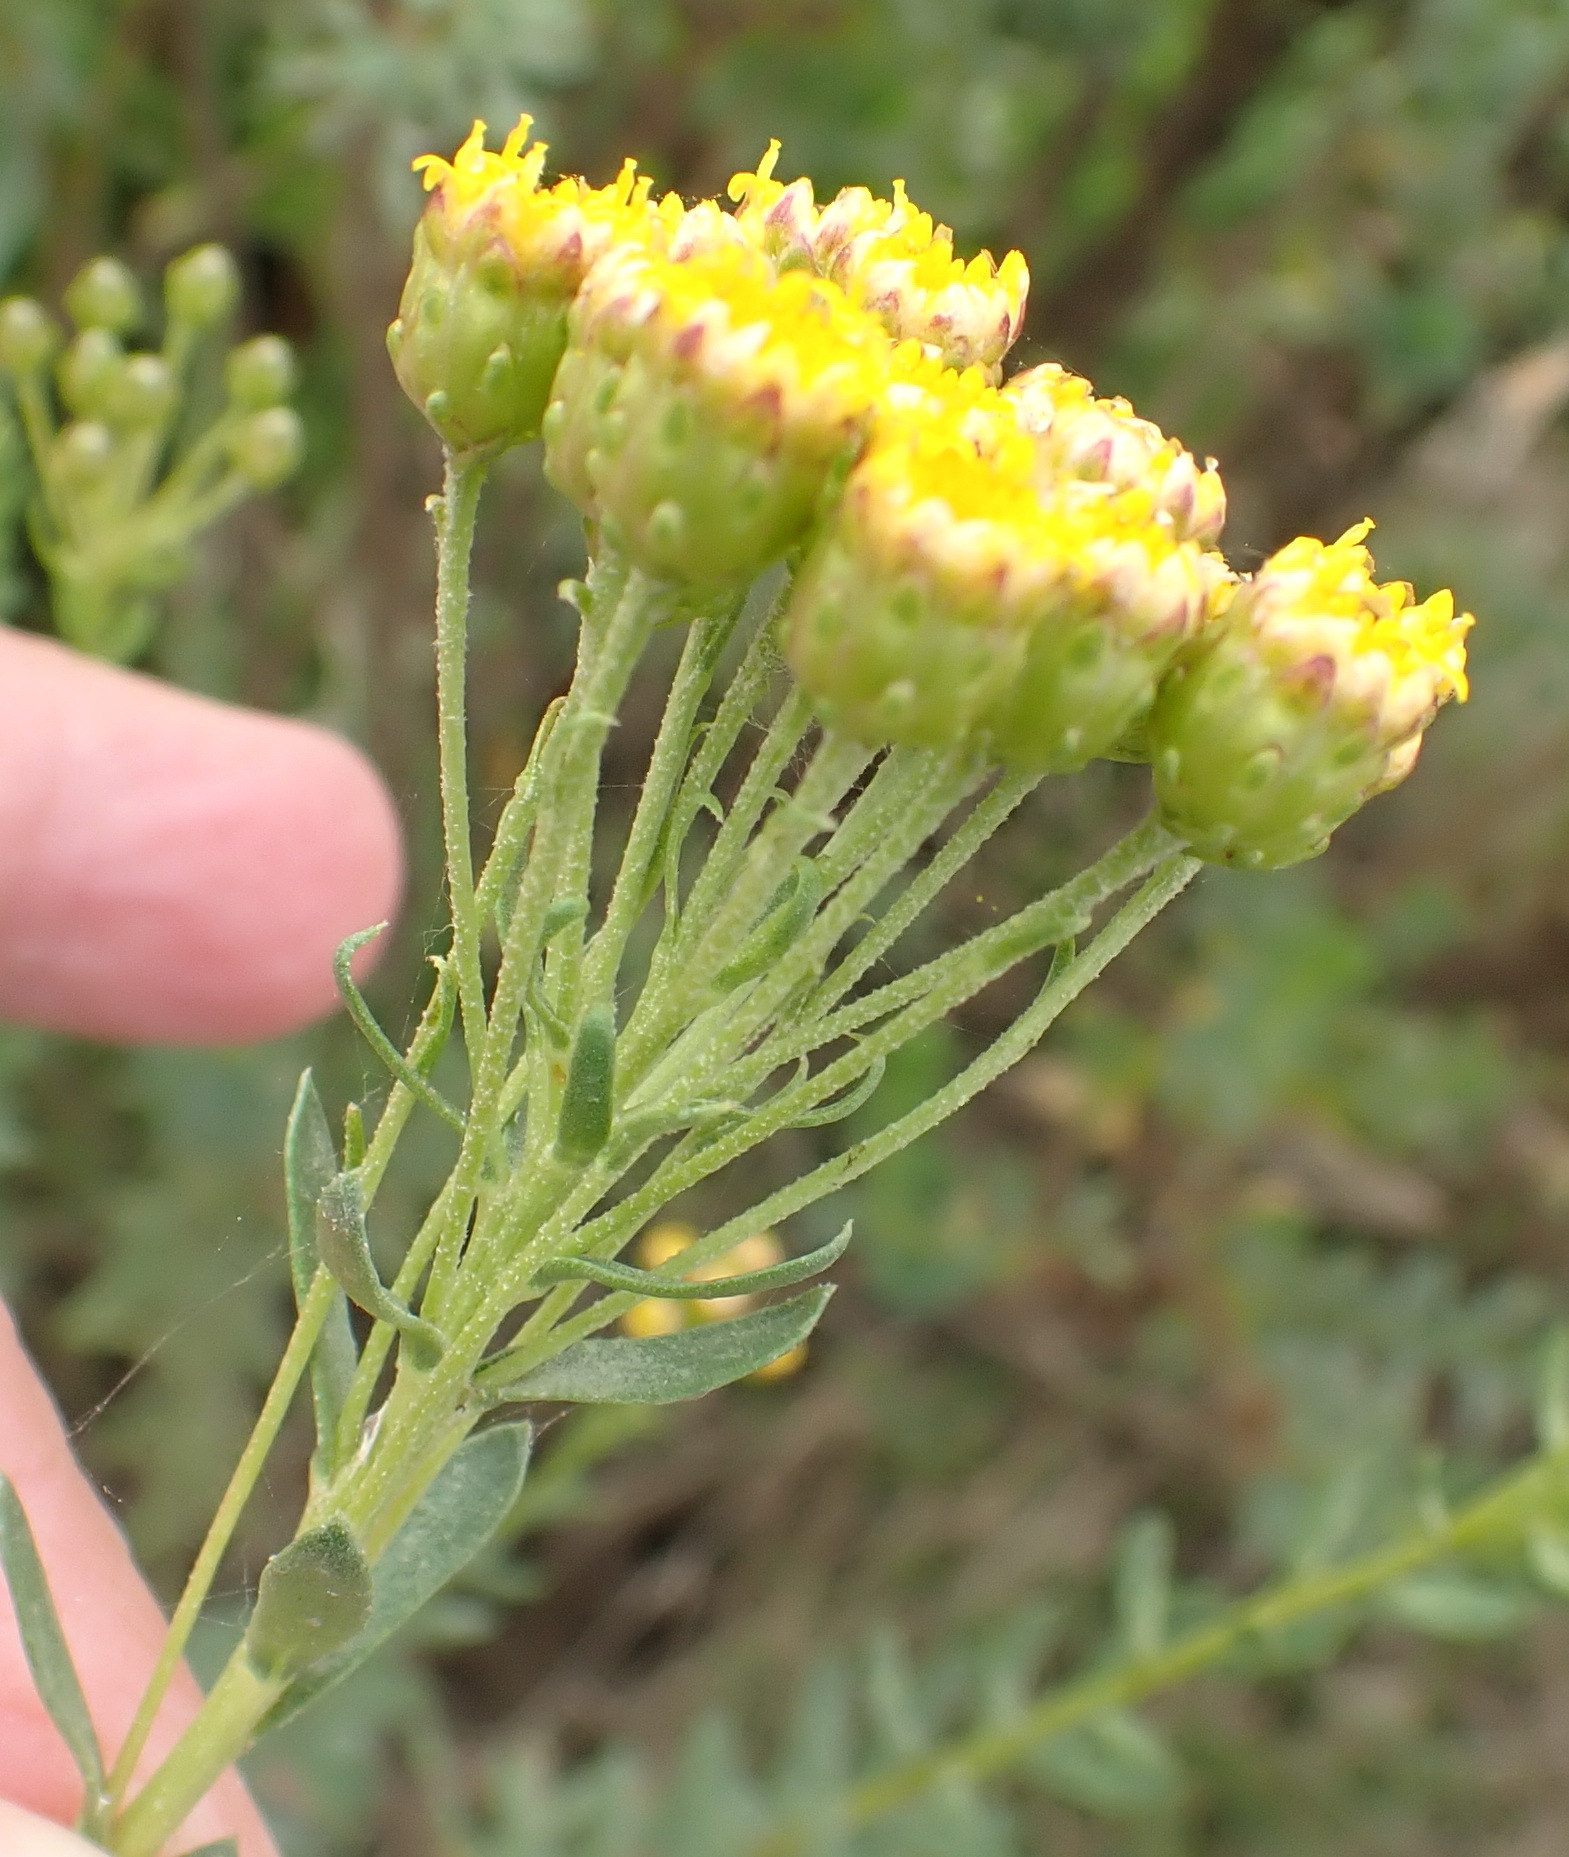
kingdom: Plantae
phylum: Tracheophyta
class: Magnoliopsida
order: Asterales
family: Asteraceae
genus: Athanasia
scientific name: Athanasia trifurcata
